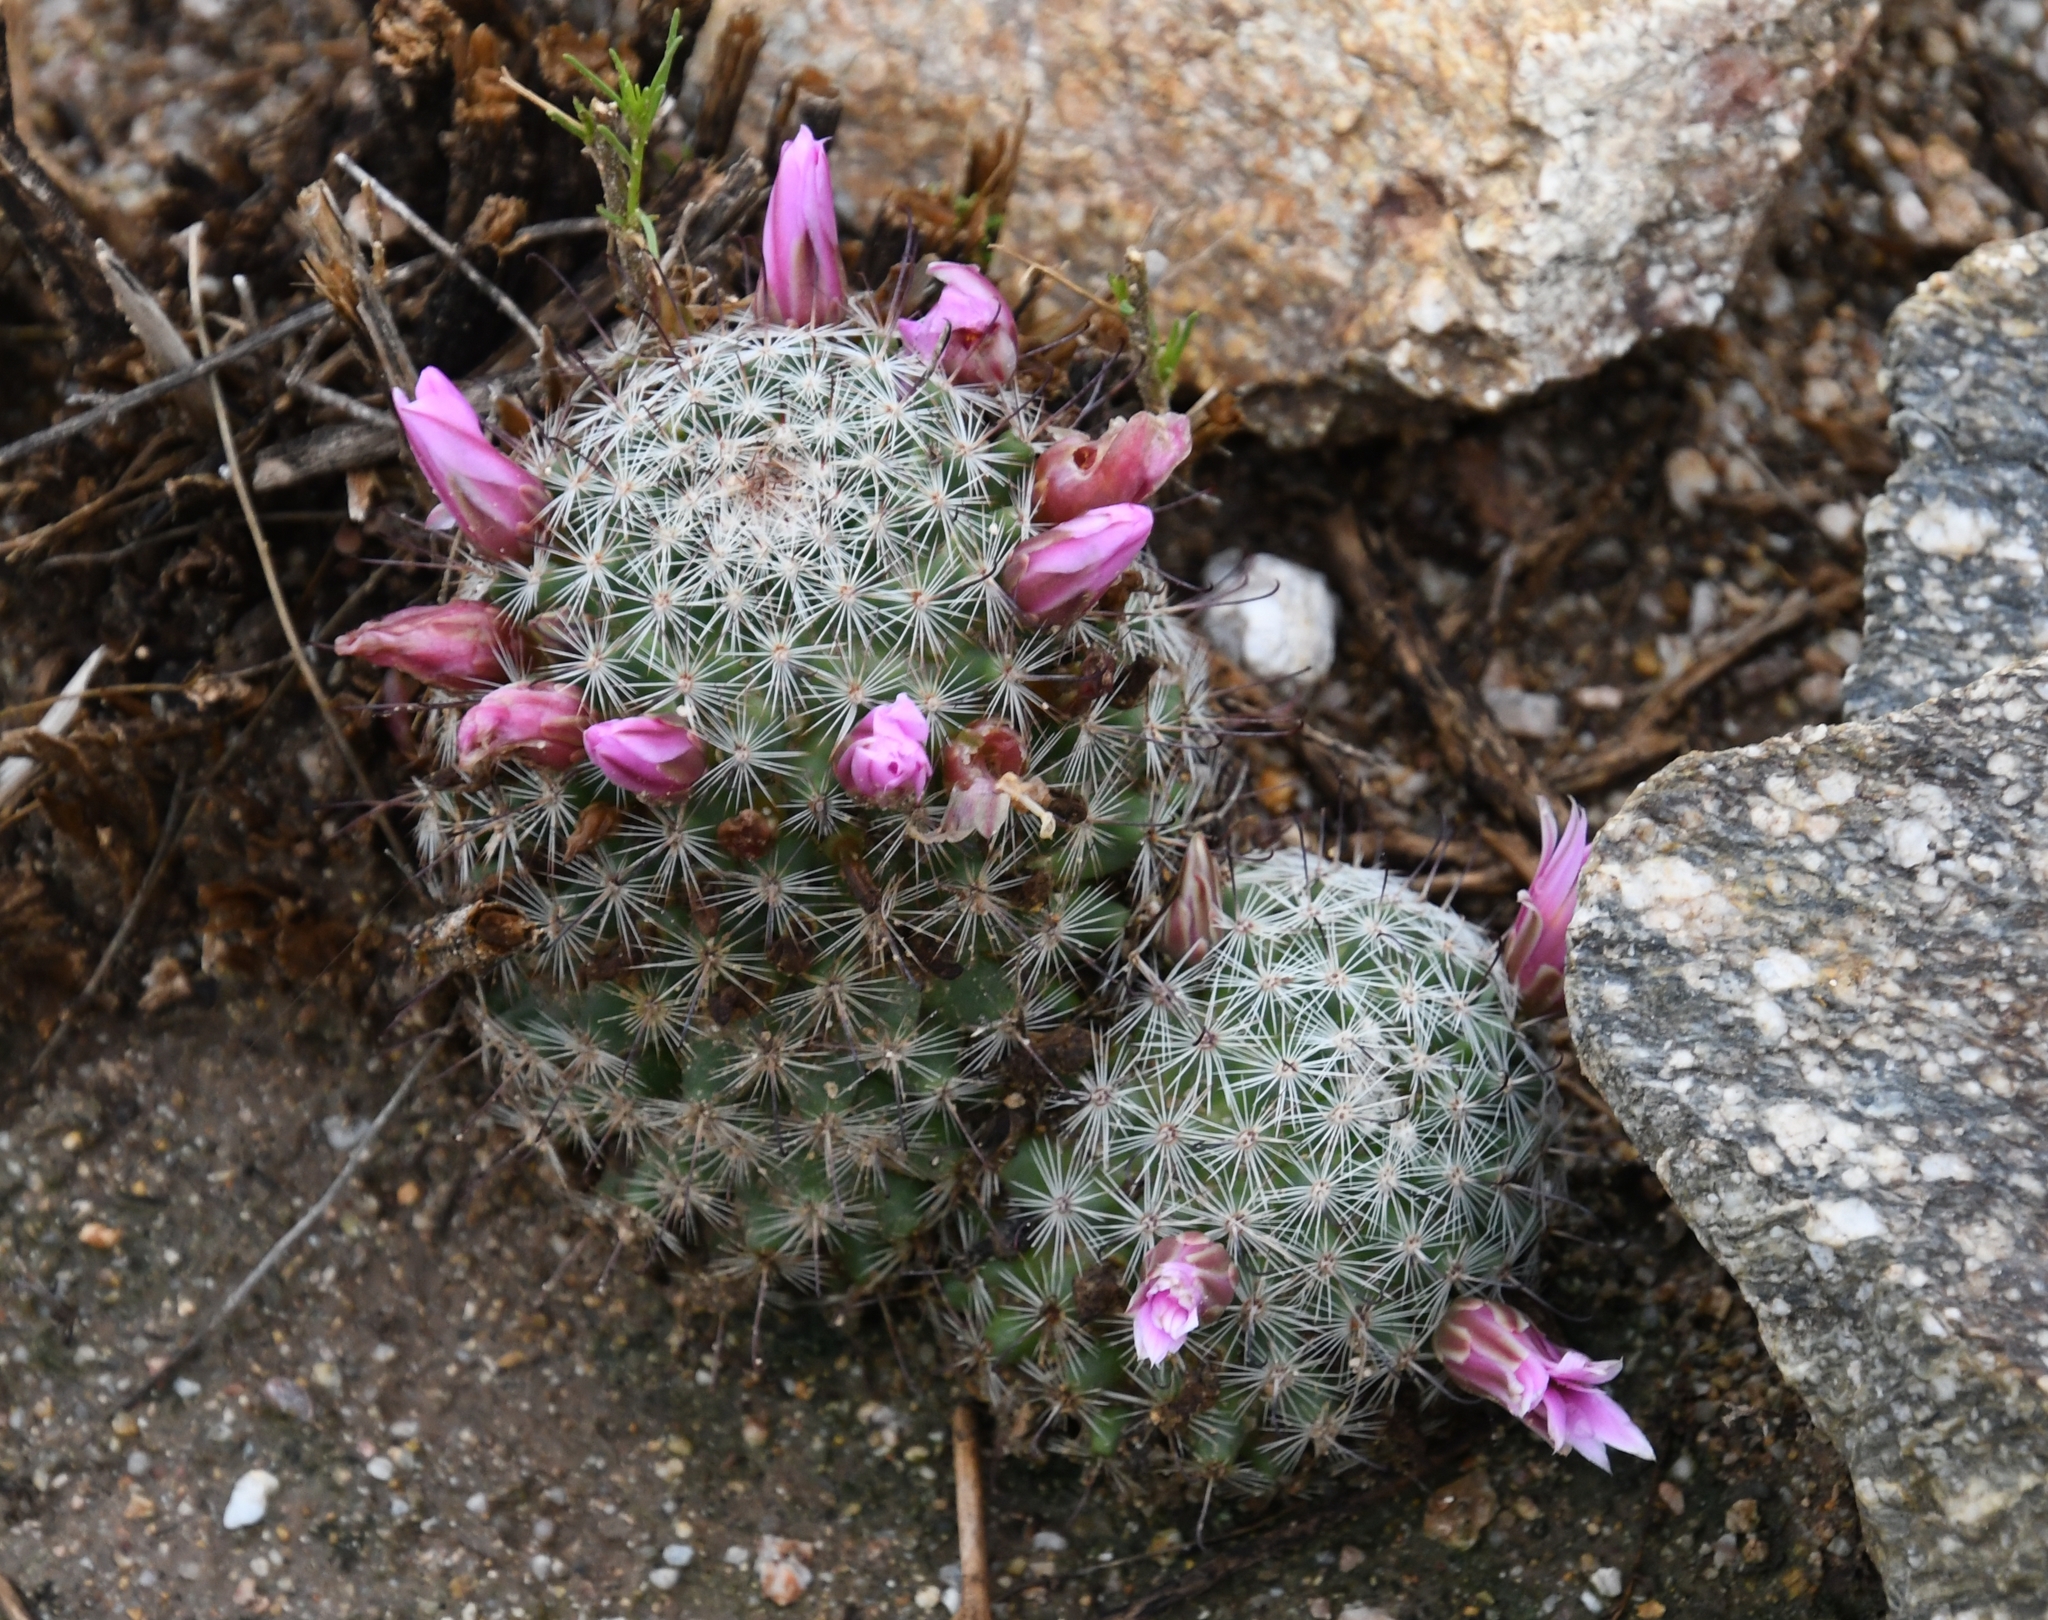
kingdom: Plantae
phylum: Tracheophyta
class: Magnoliopsida
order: Caryophyllales
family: Cactaceae
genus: Cochemiea
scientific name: Cochemiea grahamii
